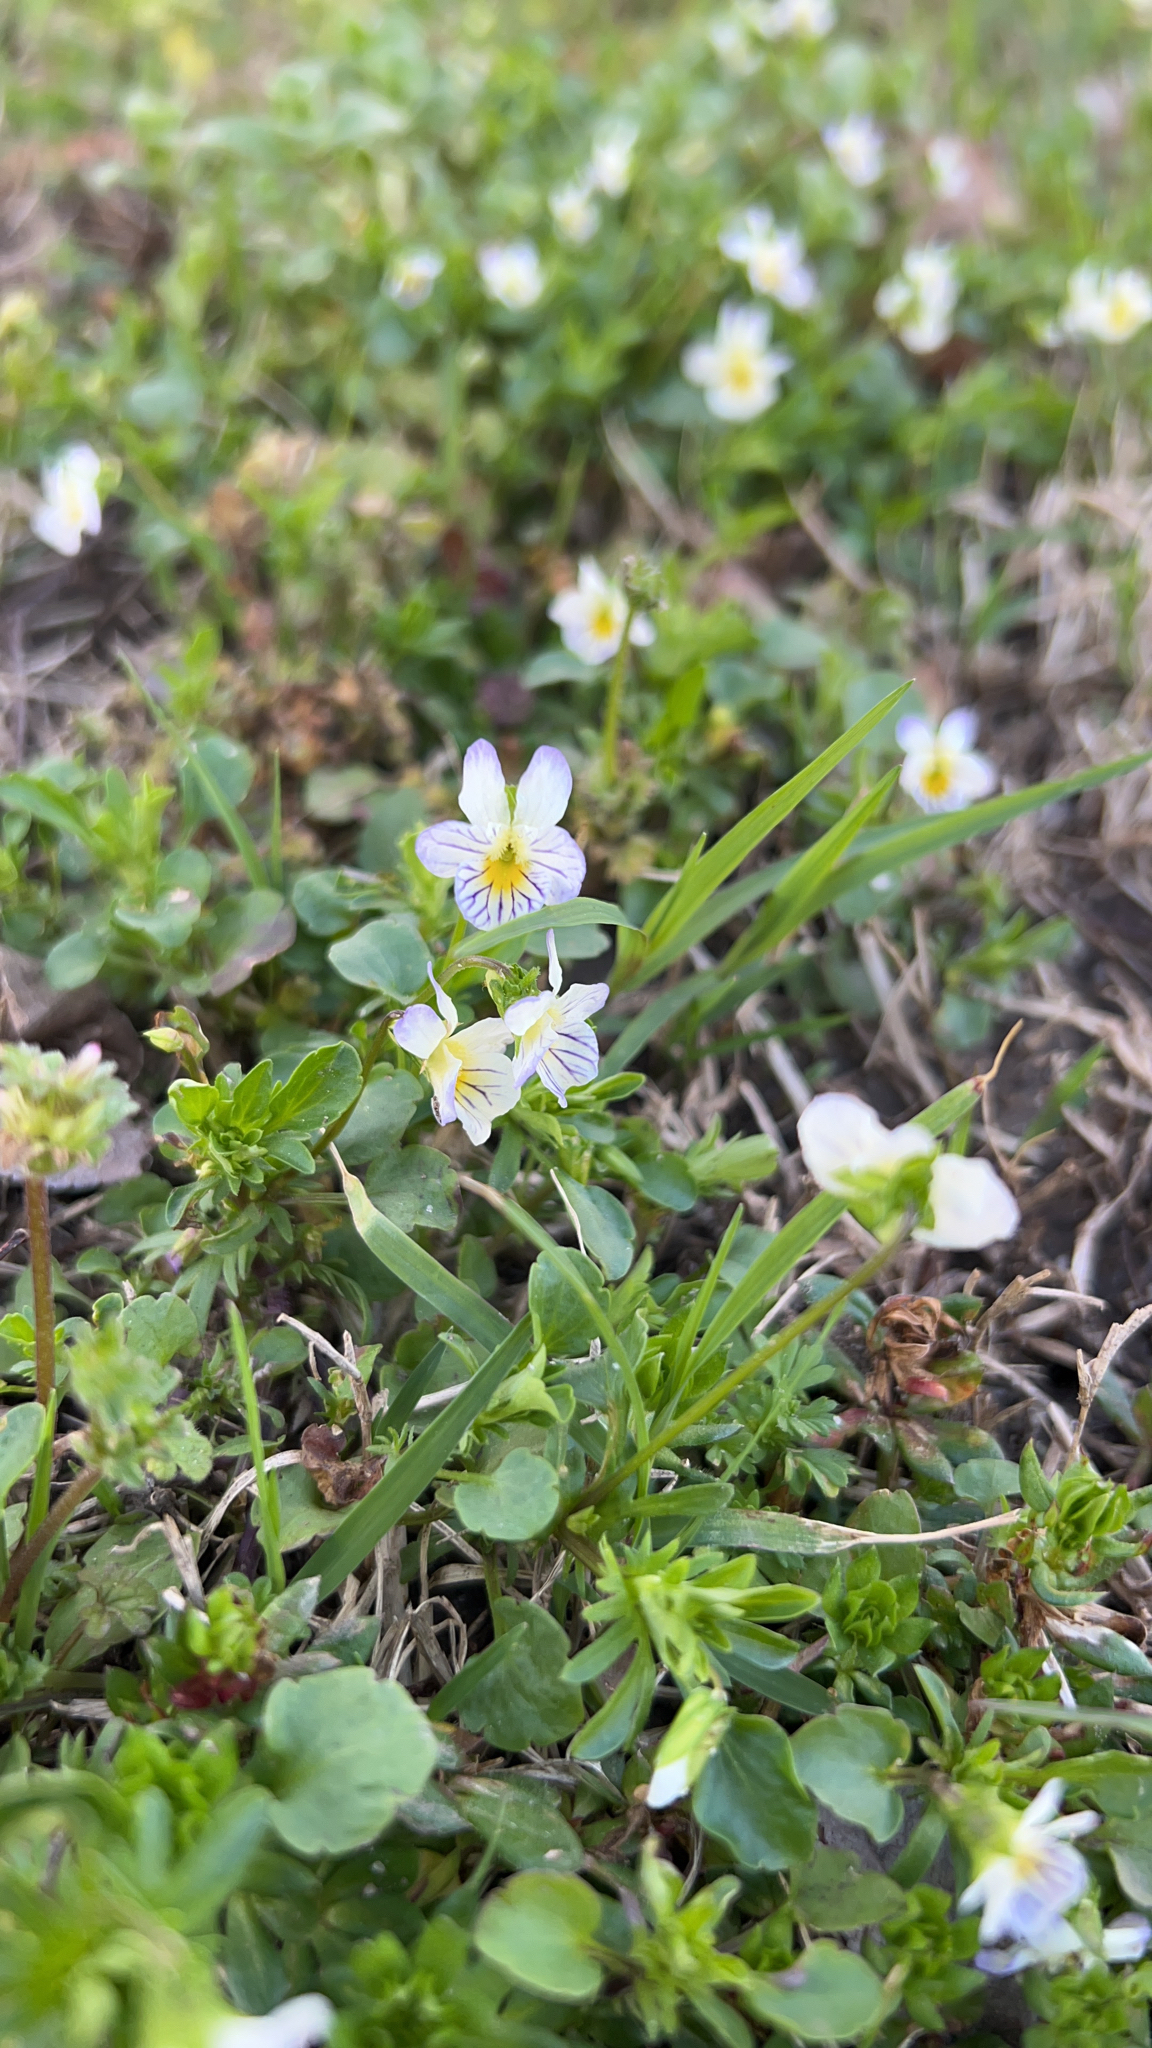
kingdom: Plantae
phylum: Tracheophyta
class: Magnoliopsida
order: Malpighiales
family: Violaceae
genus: Viola
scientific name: Viola rafinesquei
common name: American field pansy
